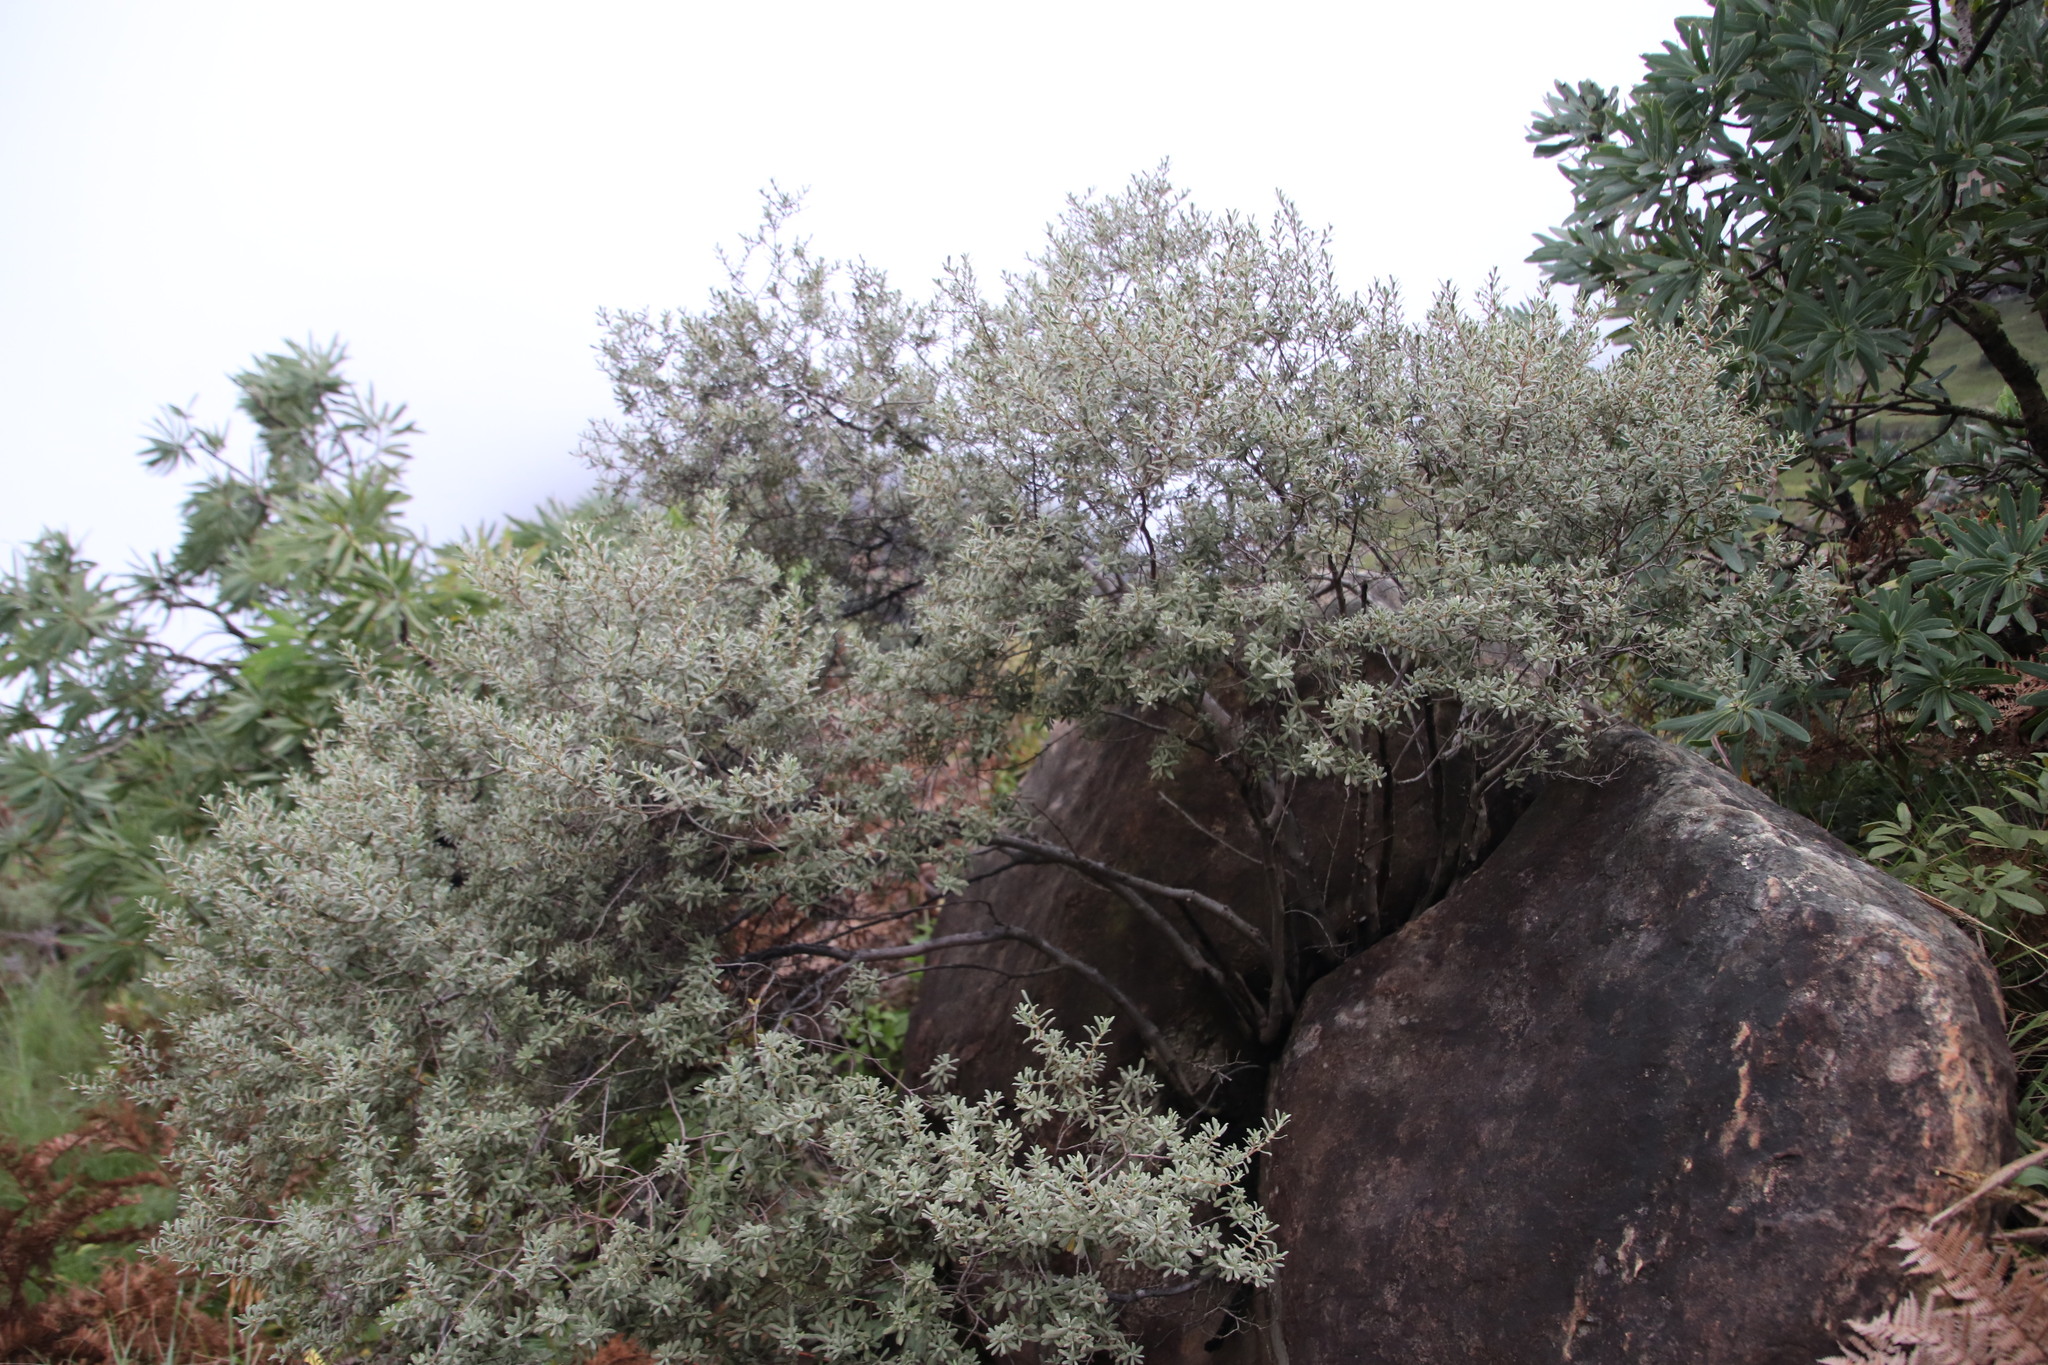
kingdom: Plantae
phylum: Tracheophyta
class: Magnoliopsida
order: Ericales
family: Ebenaceae
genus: Diospyros
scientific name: Diospyros pubescens
